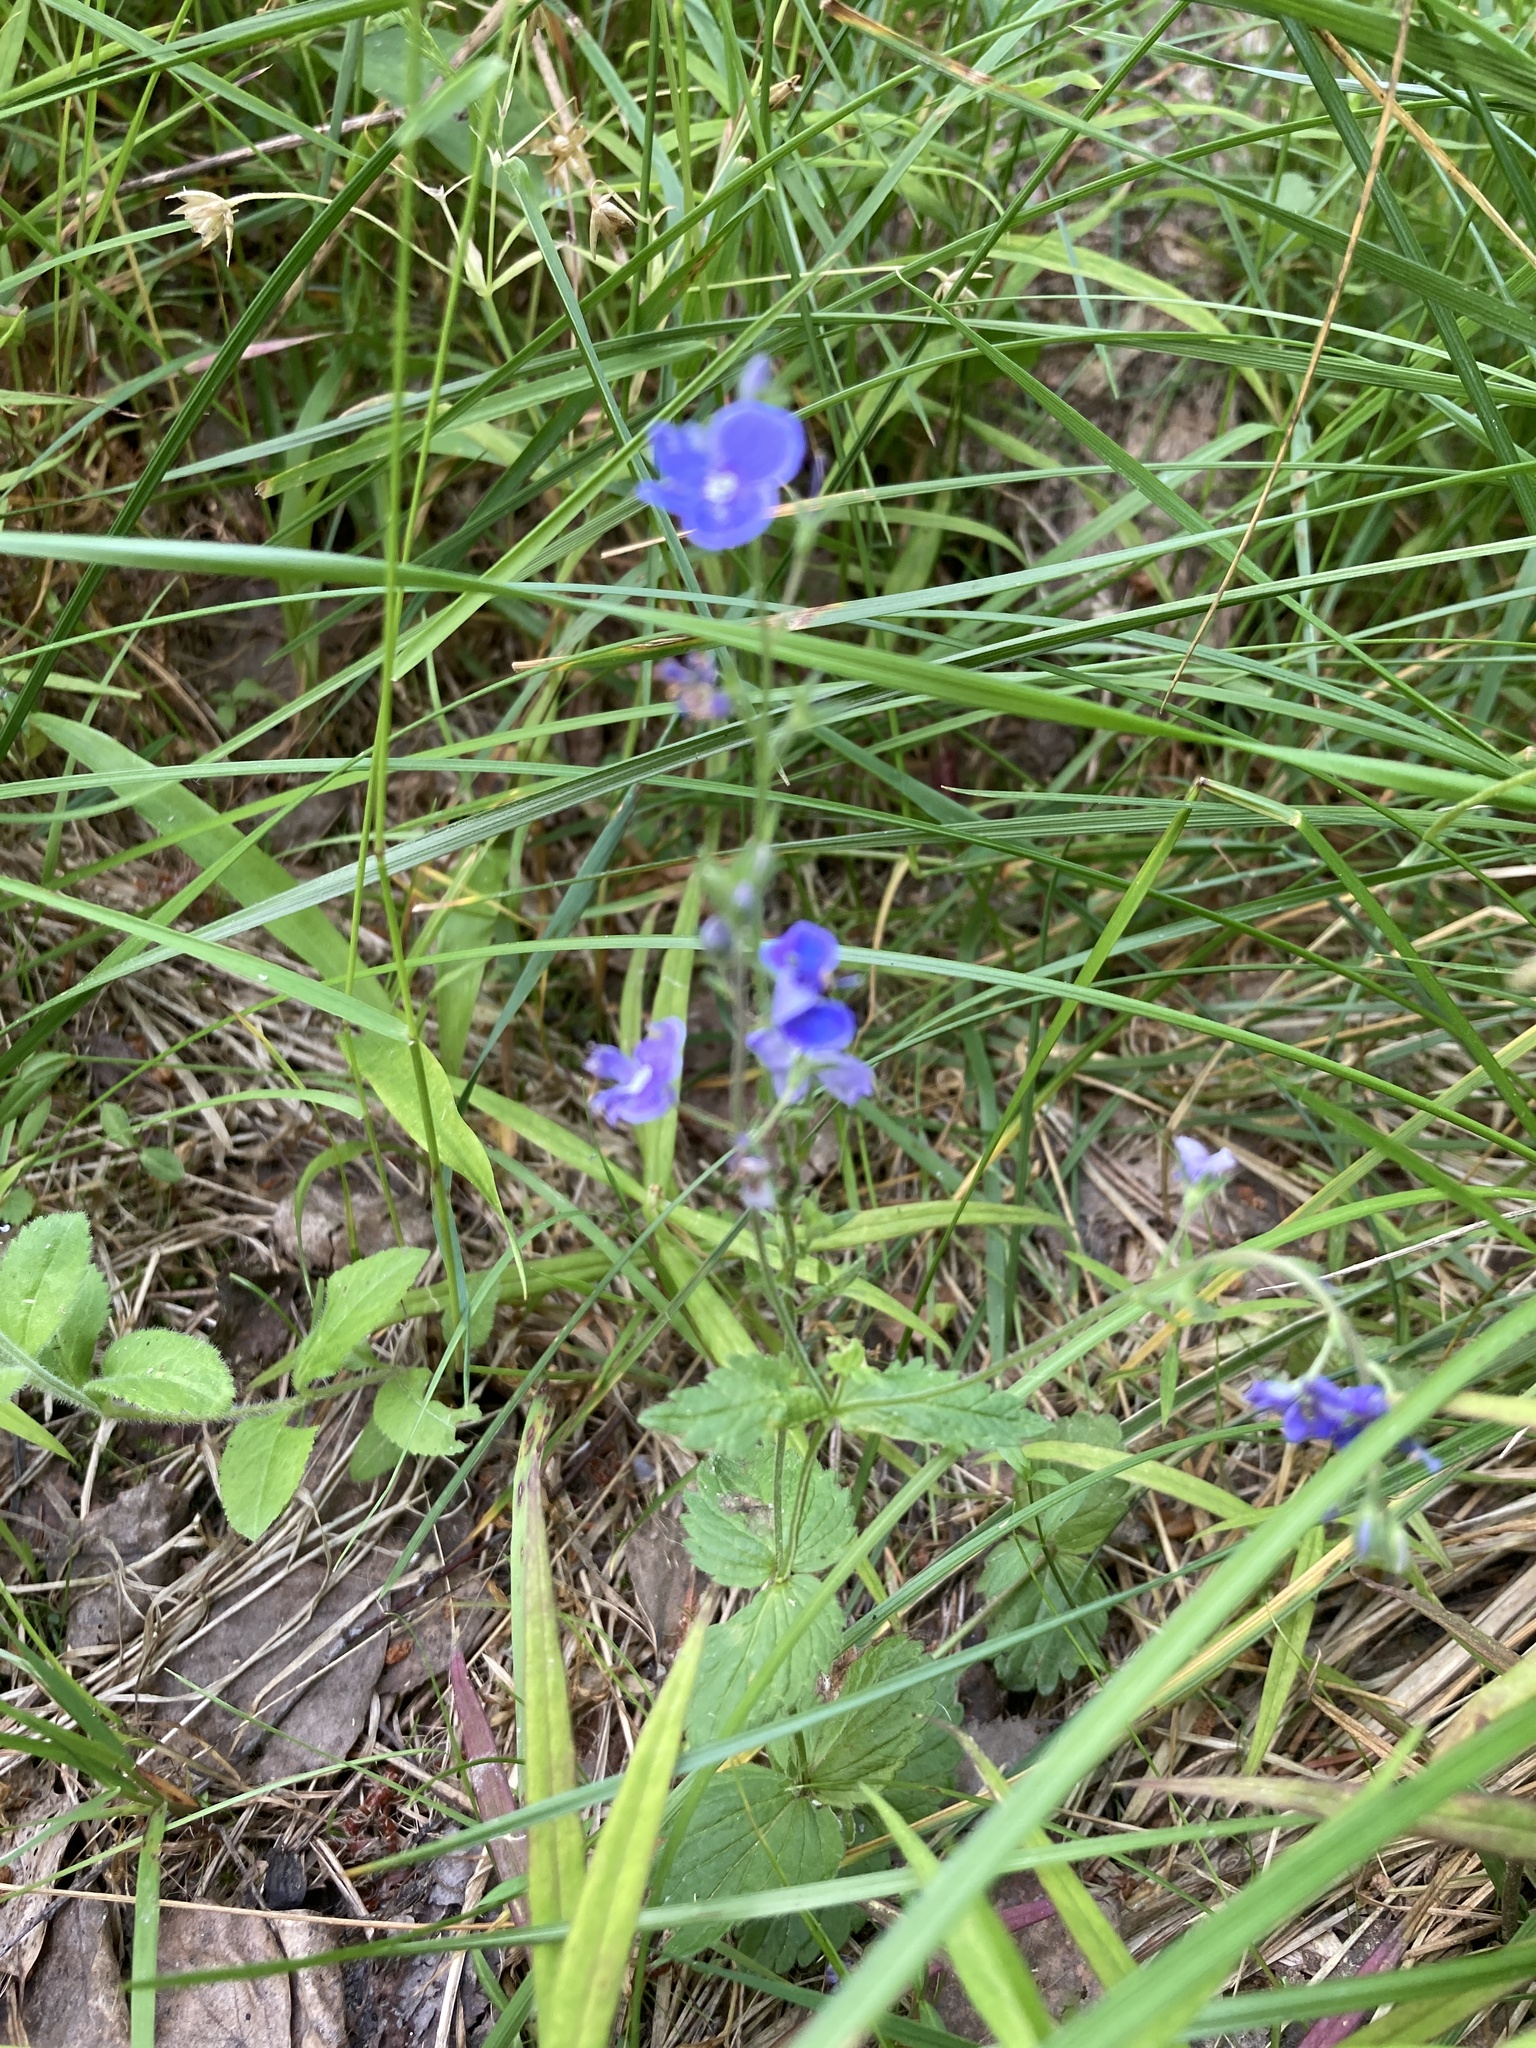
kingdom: Plantae
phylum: Tracheophyta
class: Magnoliopsida
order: Lamiales
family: Plantaginaceae
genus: Veronica
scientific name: Veronica chamaedrys
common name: Germander speedwell
